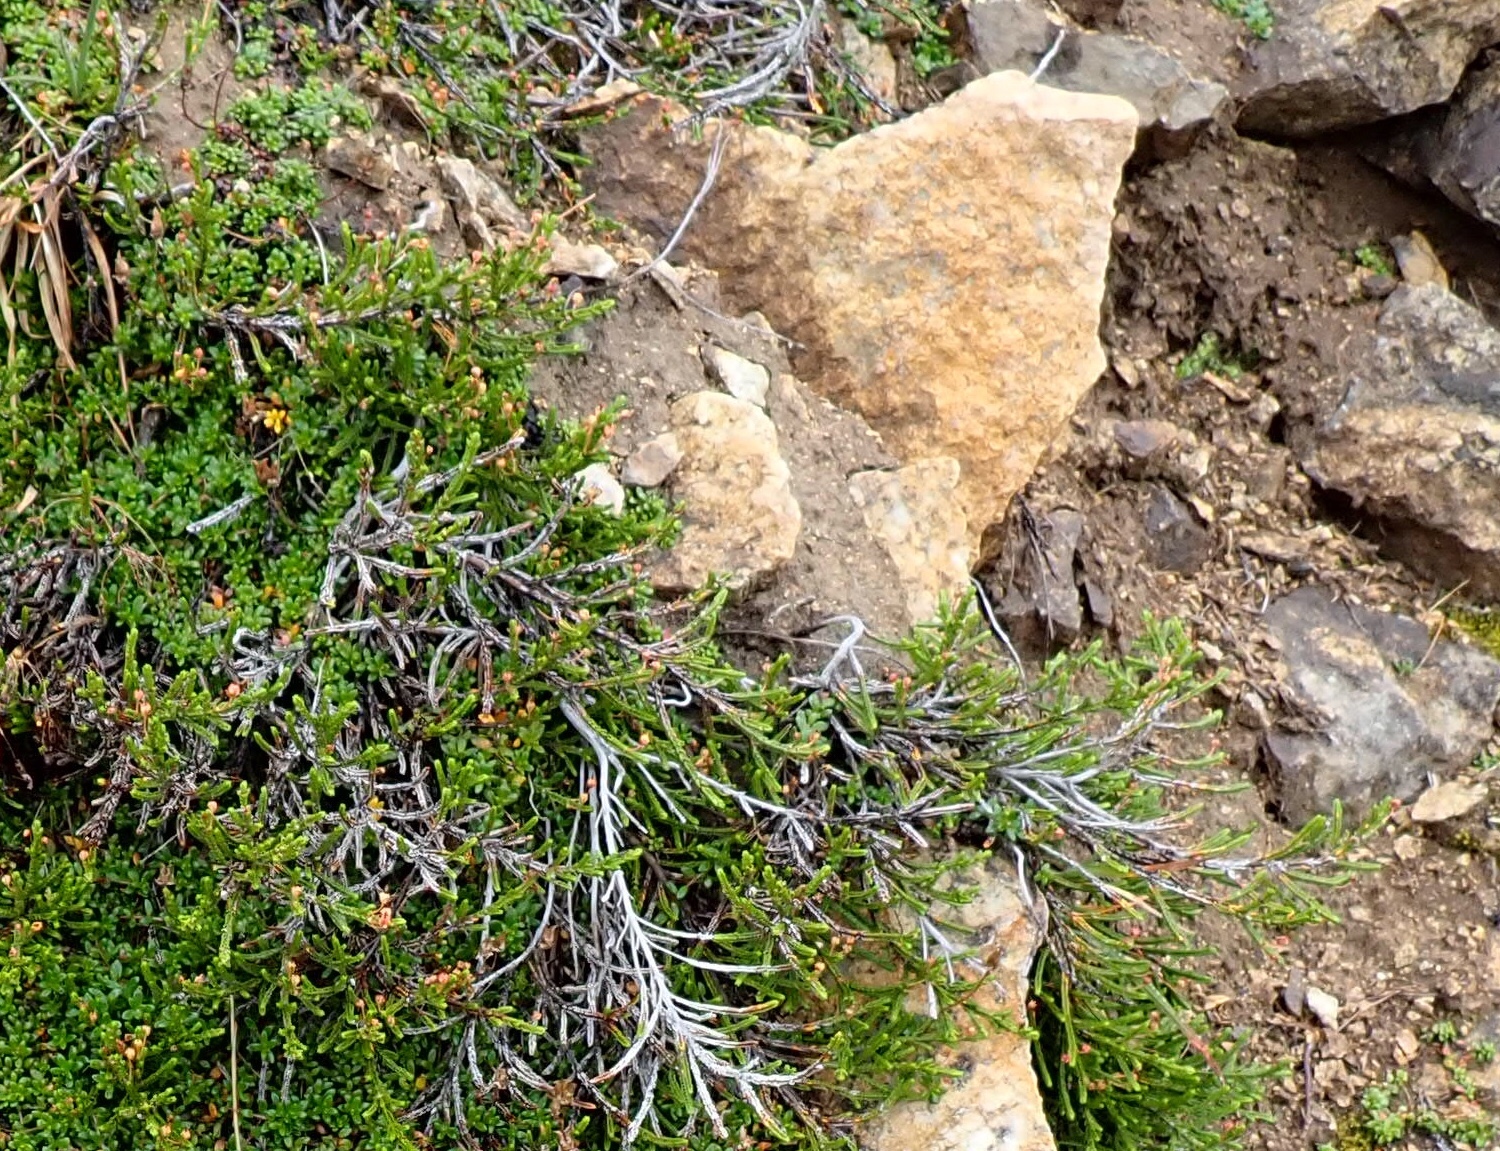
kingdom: Plantae
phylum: Tracheophyta
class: Magnoliopsida
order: Ericales
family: Ericaceae
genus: Cassiope
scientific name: Cassiope mertensiana
